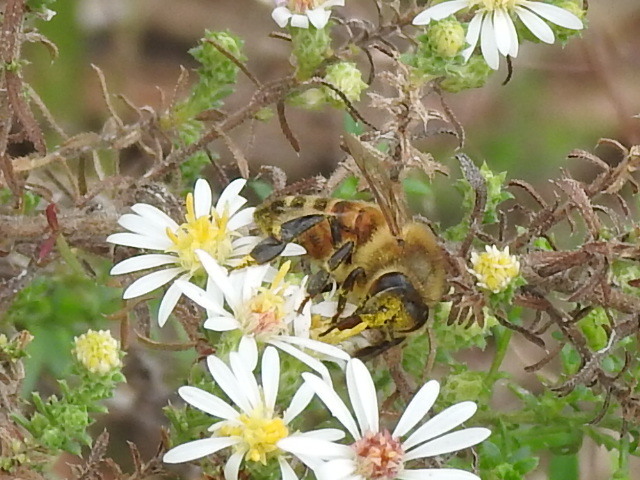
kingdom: Animalia
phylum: Arthropoda
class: Insecta
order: Hymenoptera
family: Apidae
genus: Apis
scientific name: Apis mellifera
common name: Honey bee
